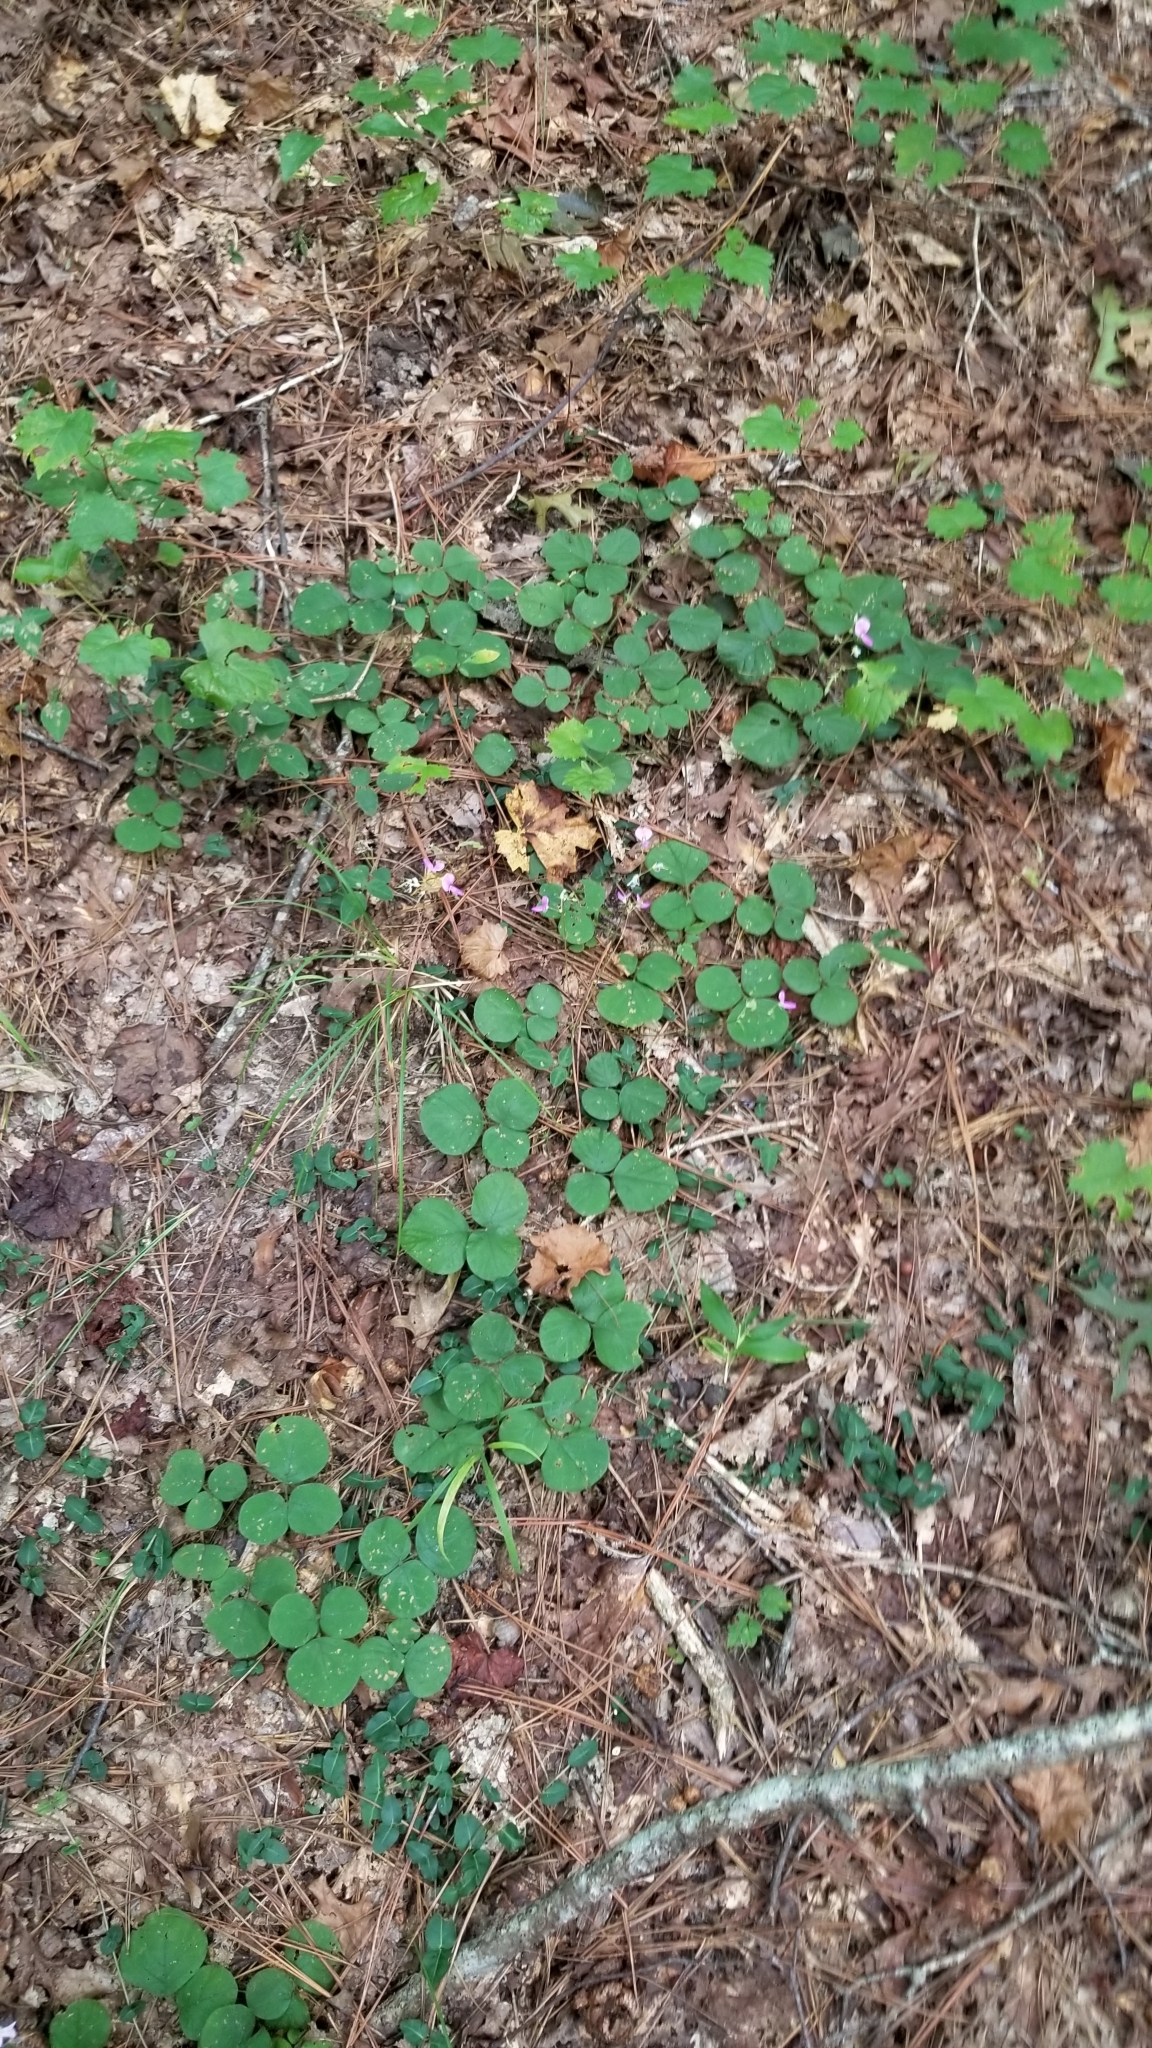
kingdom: Plantae
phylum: Tracheophyta
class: Magnoliopsida
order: Fabales
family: Fabaceae
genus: Desmodium
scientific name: Desmodium rotundifolium
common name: Dollarleaf
